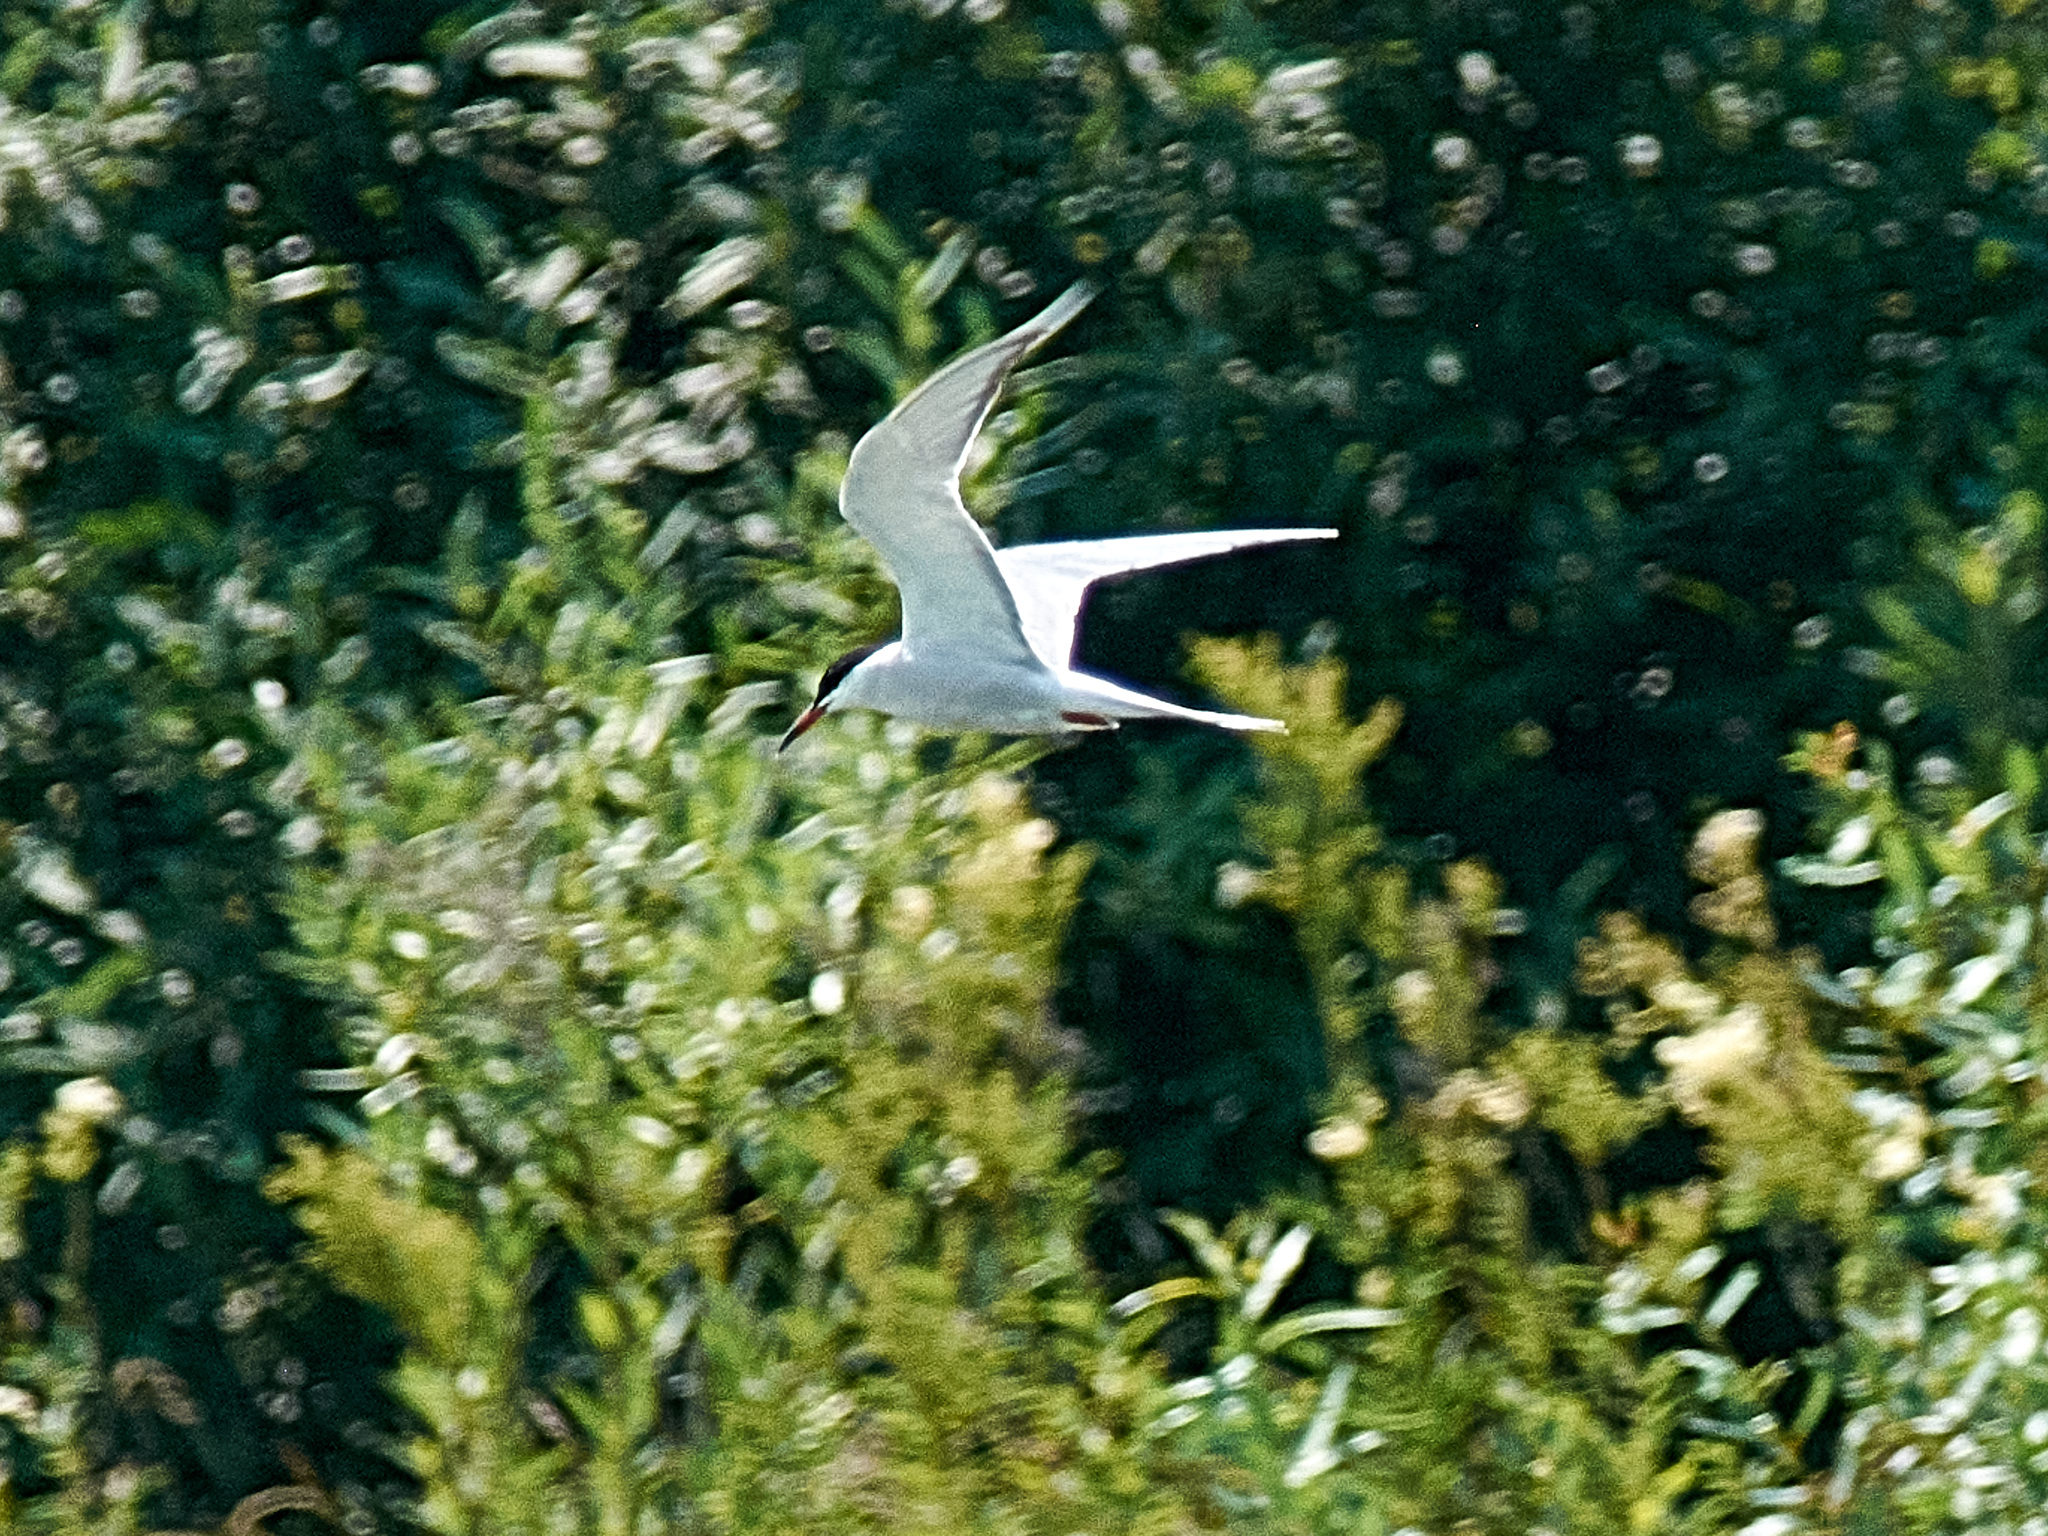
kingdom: Animalia
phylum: Chordata
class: Aves
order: Charadriiformes
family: Laridae
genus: Sterna
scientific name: Sterna hirundo
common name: Common tern
